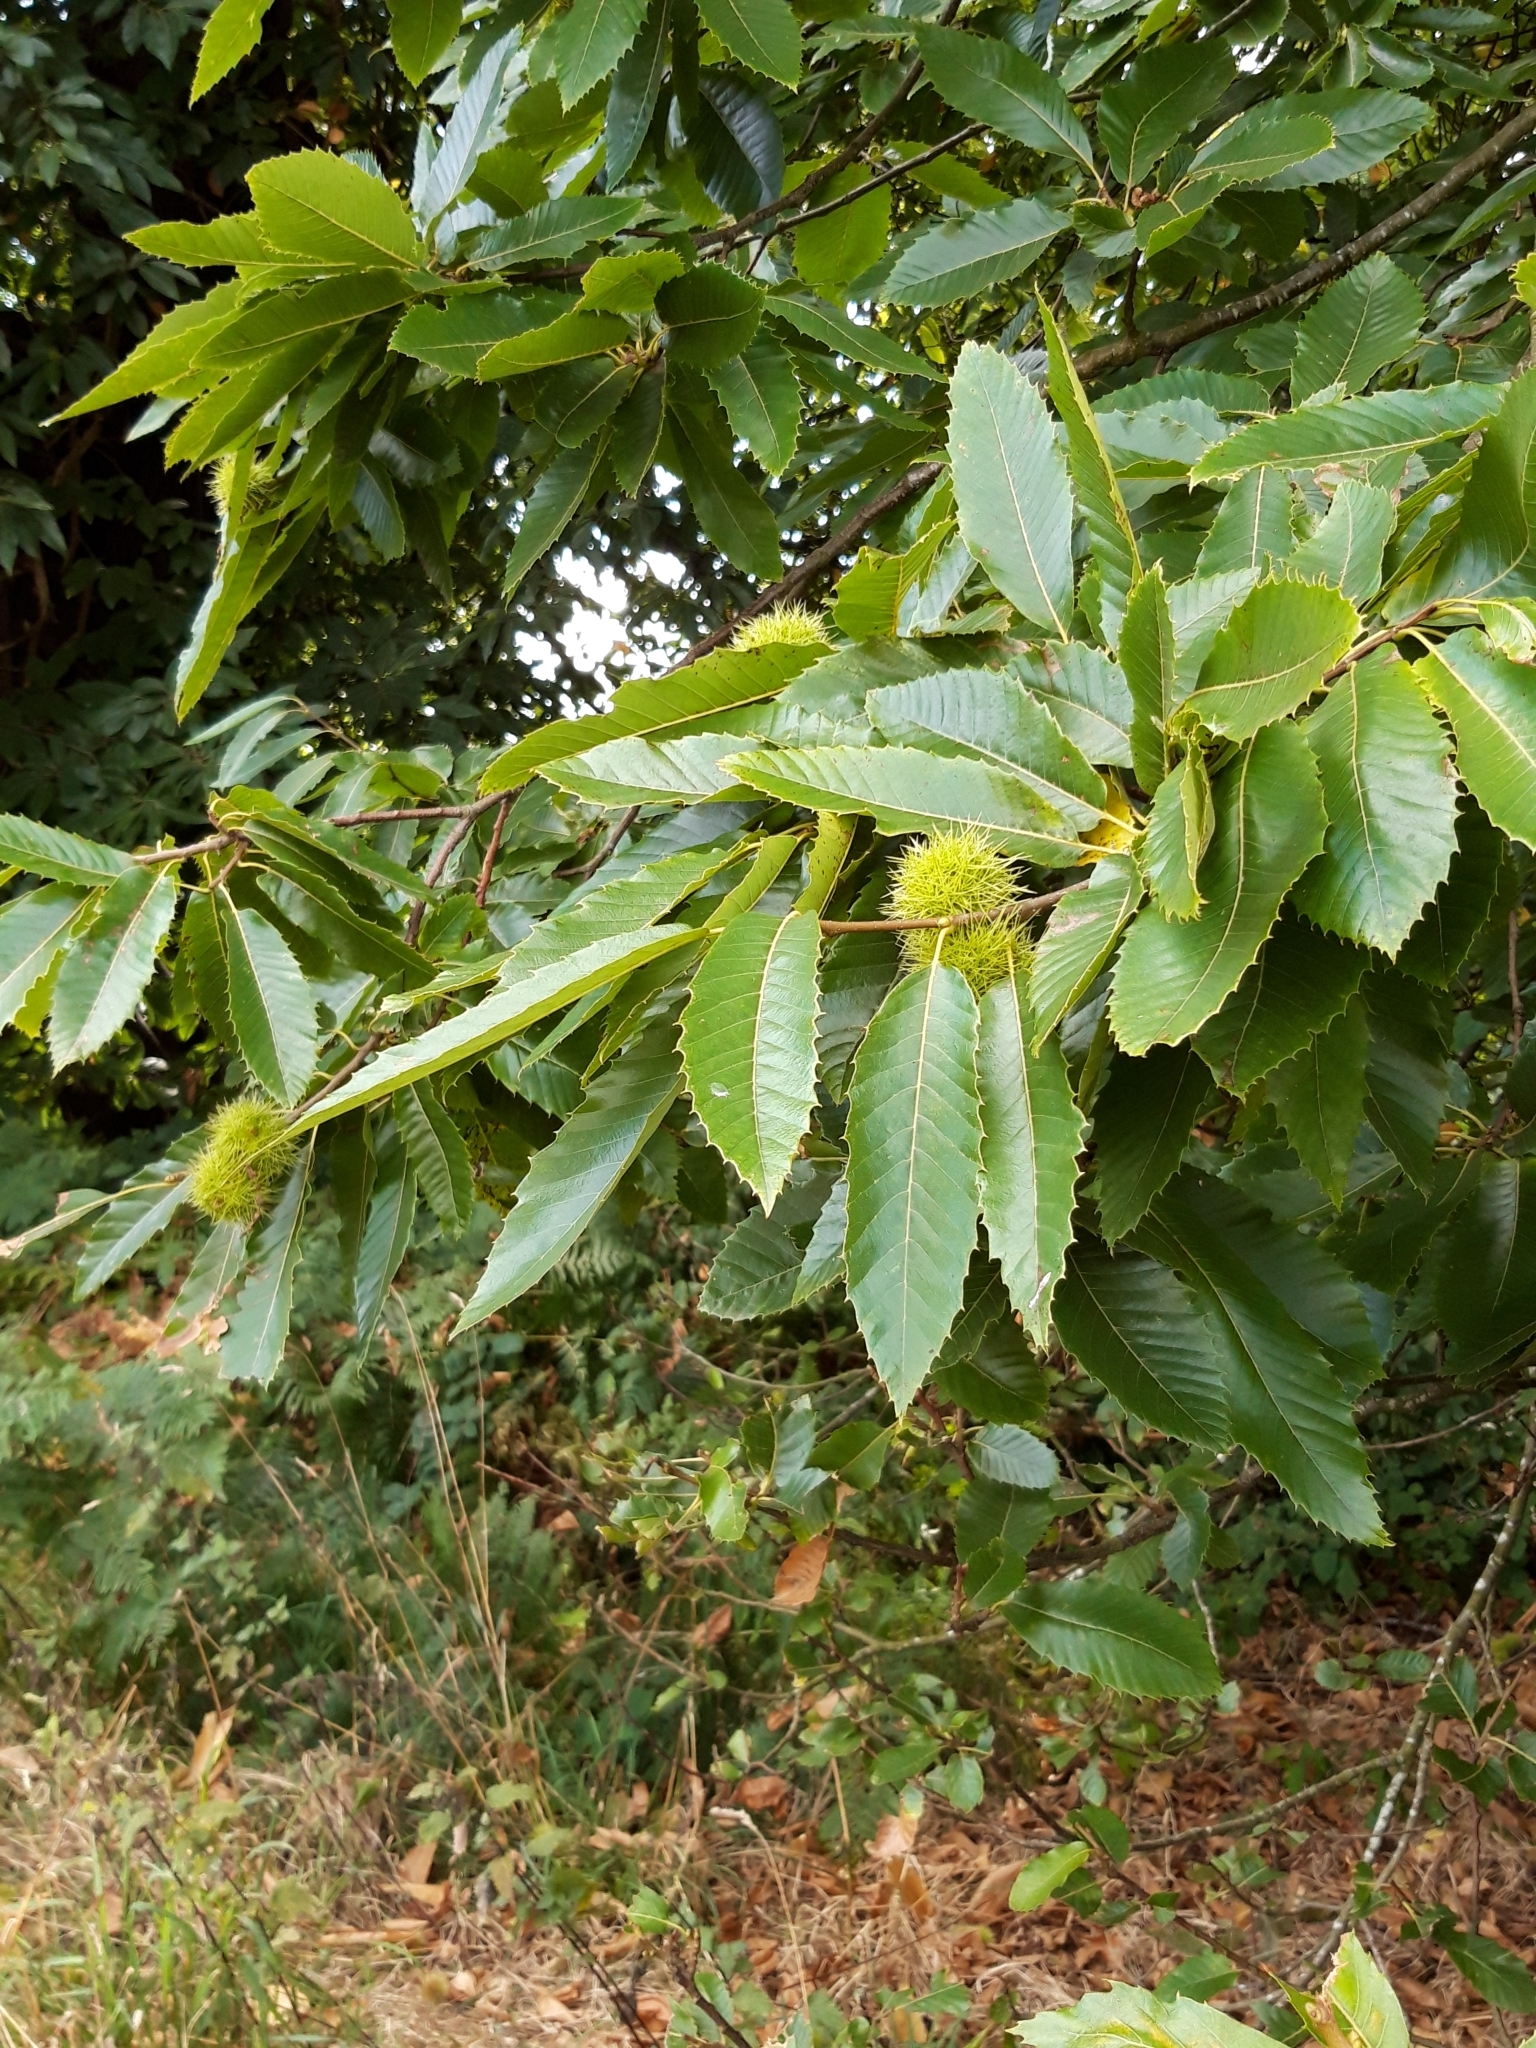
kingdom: Plantae
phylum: Tracheophyta
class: Magnoliopsida
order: Fagales
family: Fagaceae
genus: Castanea
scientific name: Castanea sativa
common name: Sweet chestnut
